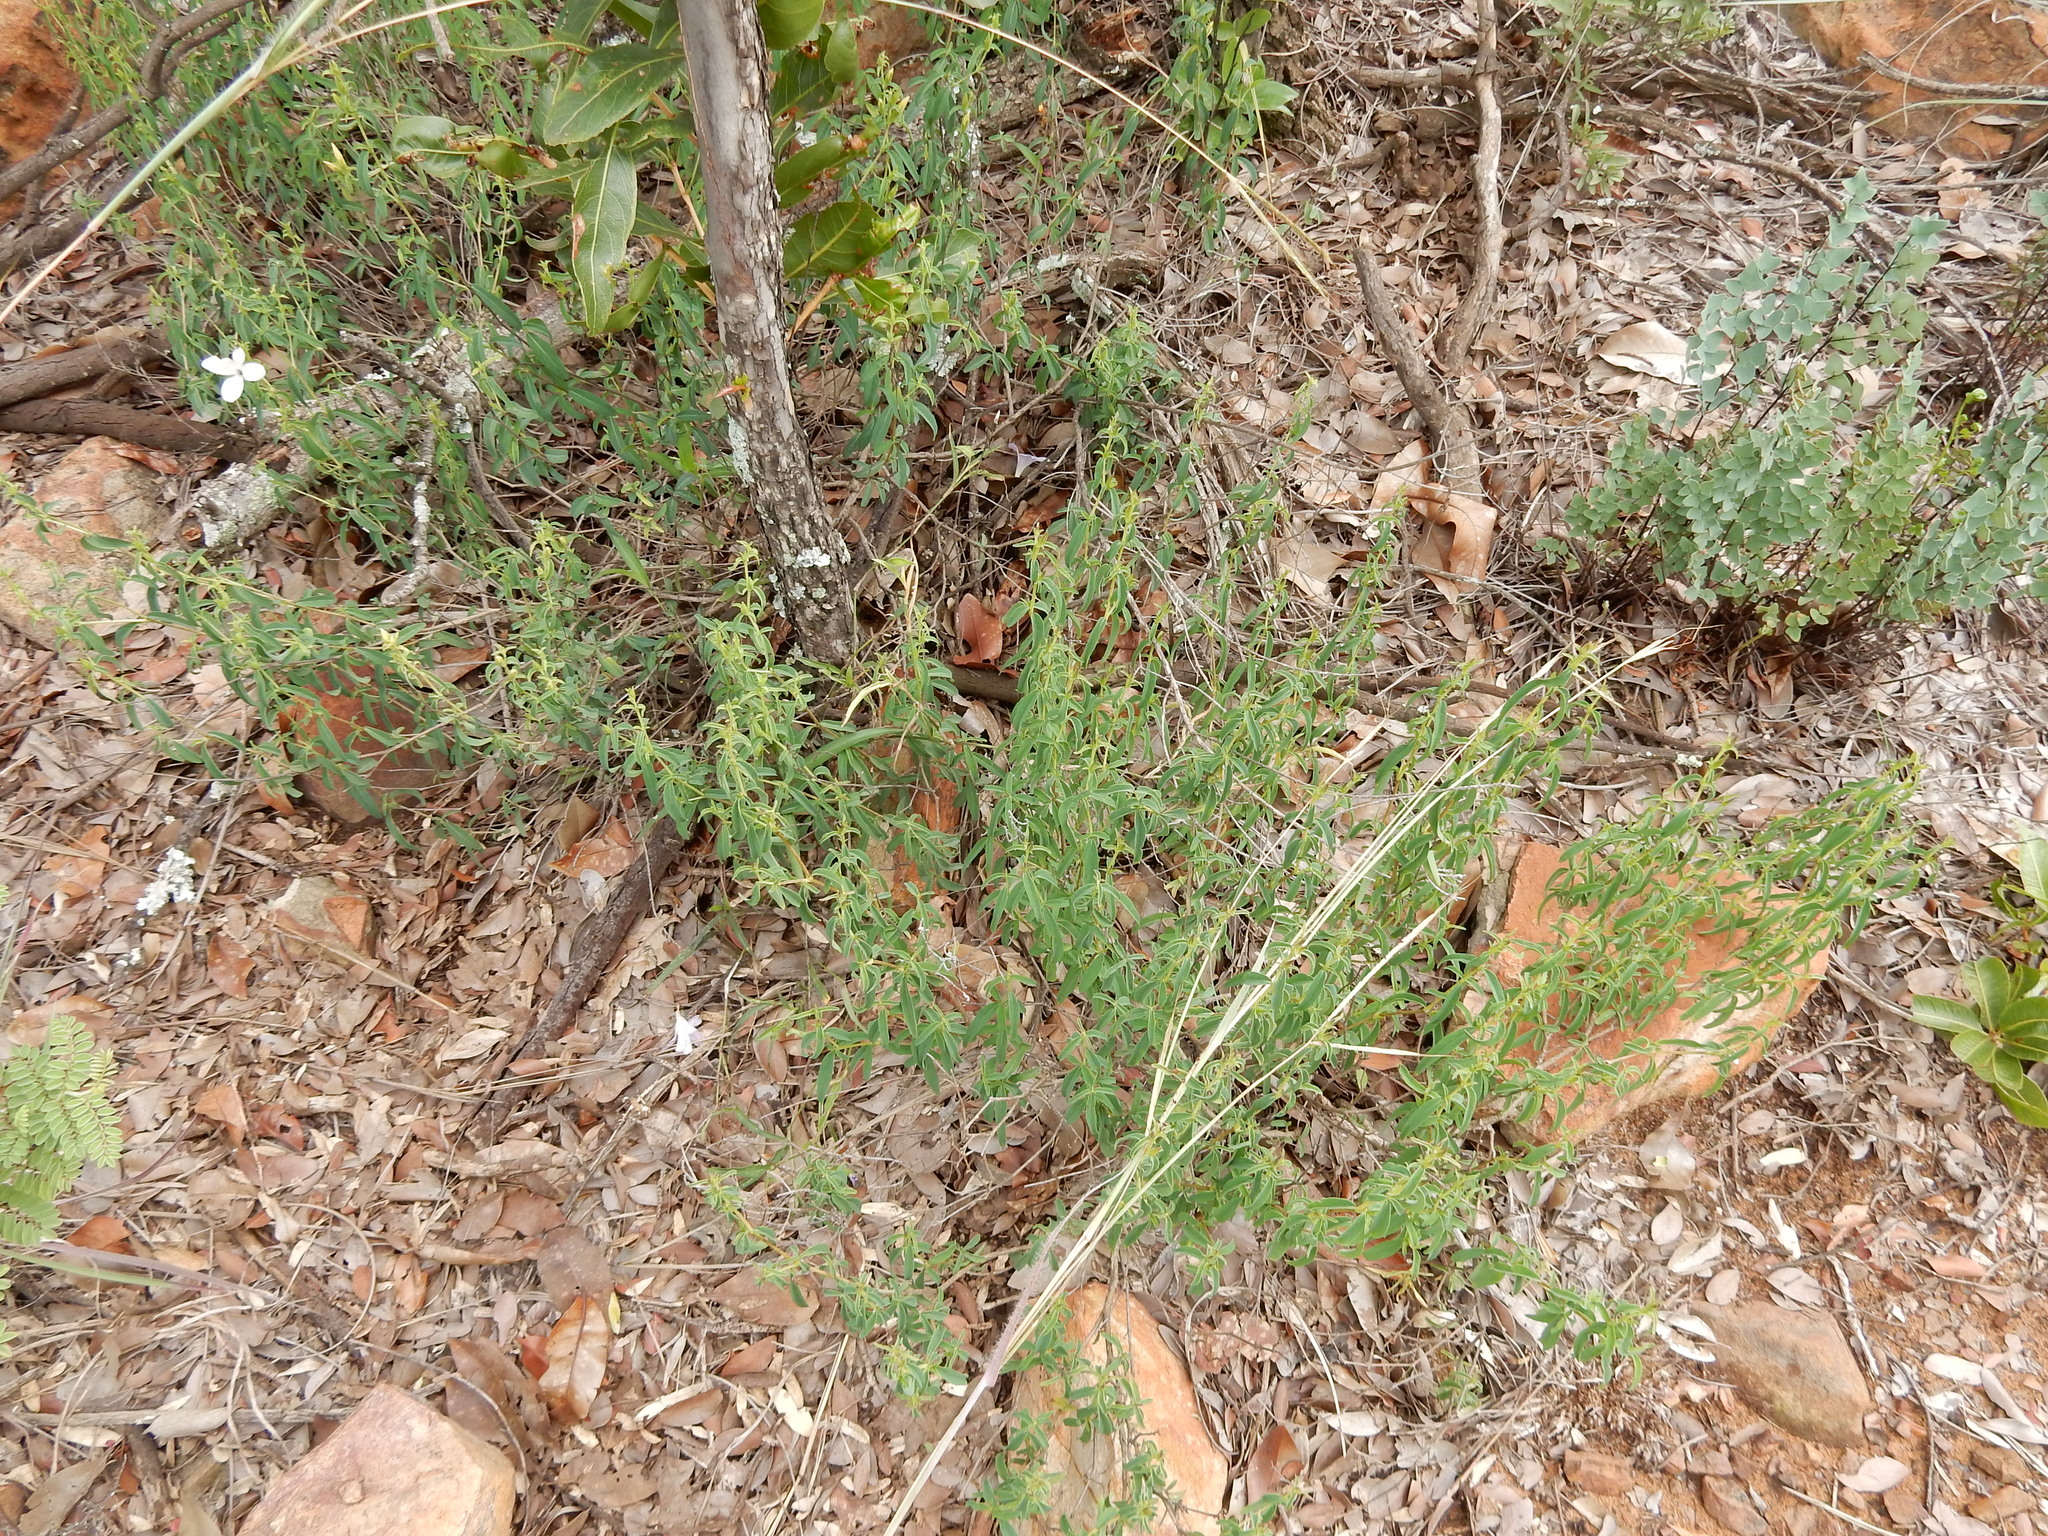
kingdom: Plantae
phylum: Tracheophyta
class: Magnoliopsida
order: Lamiales
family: Acanthaceae
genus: Barleria
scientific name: Barleria pretoriensis
